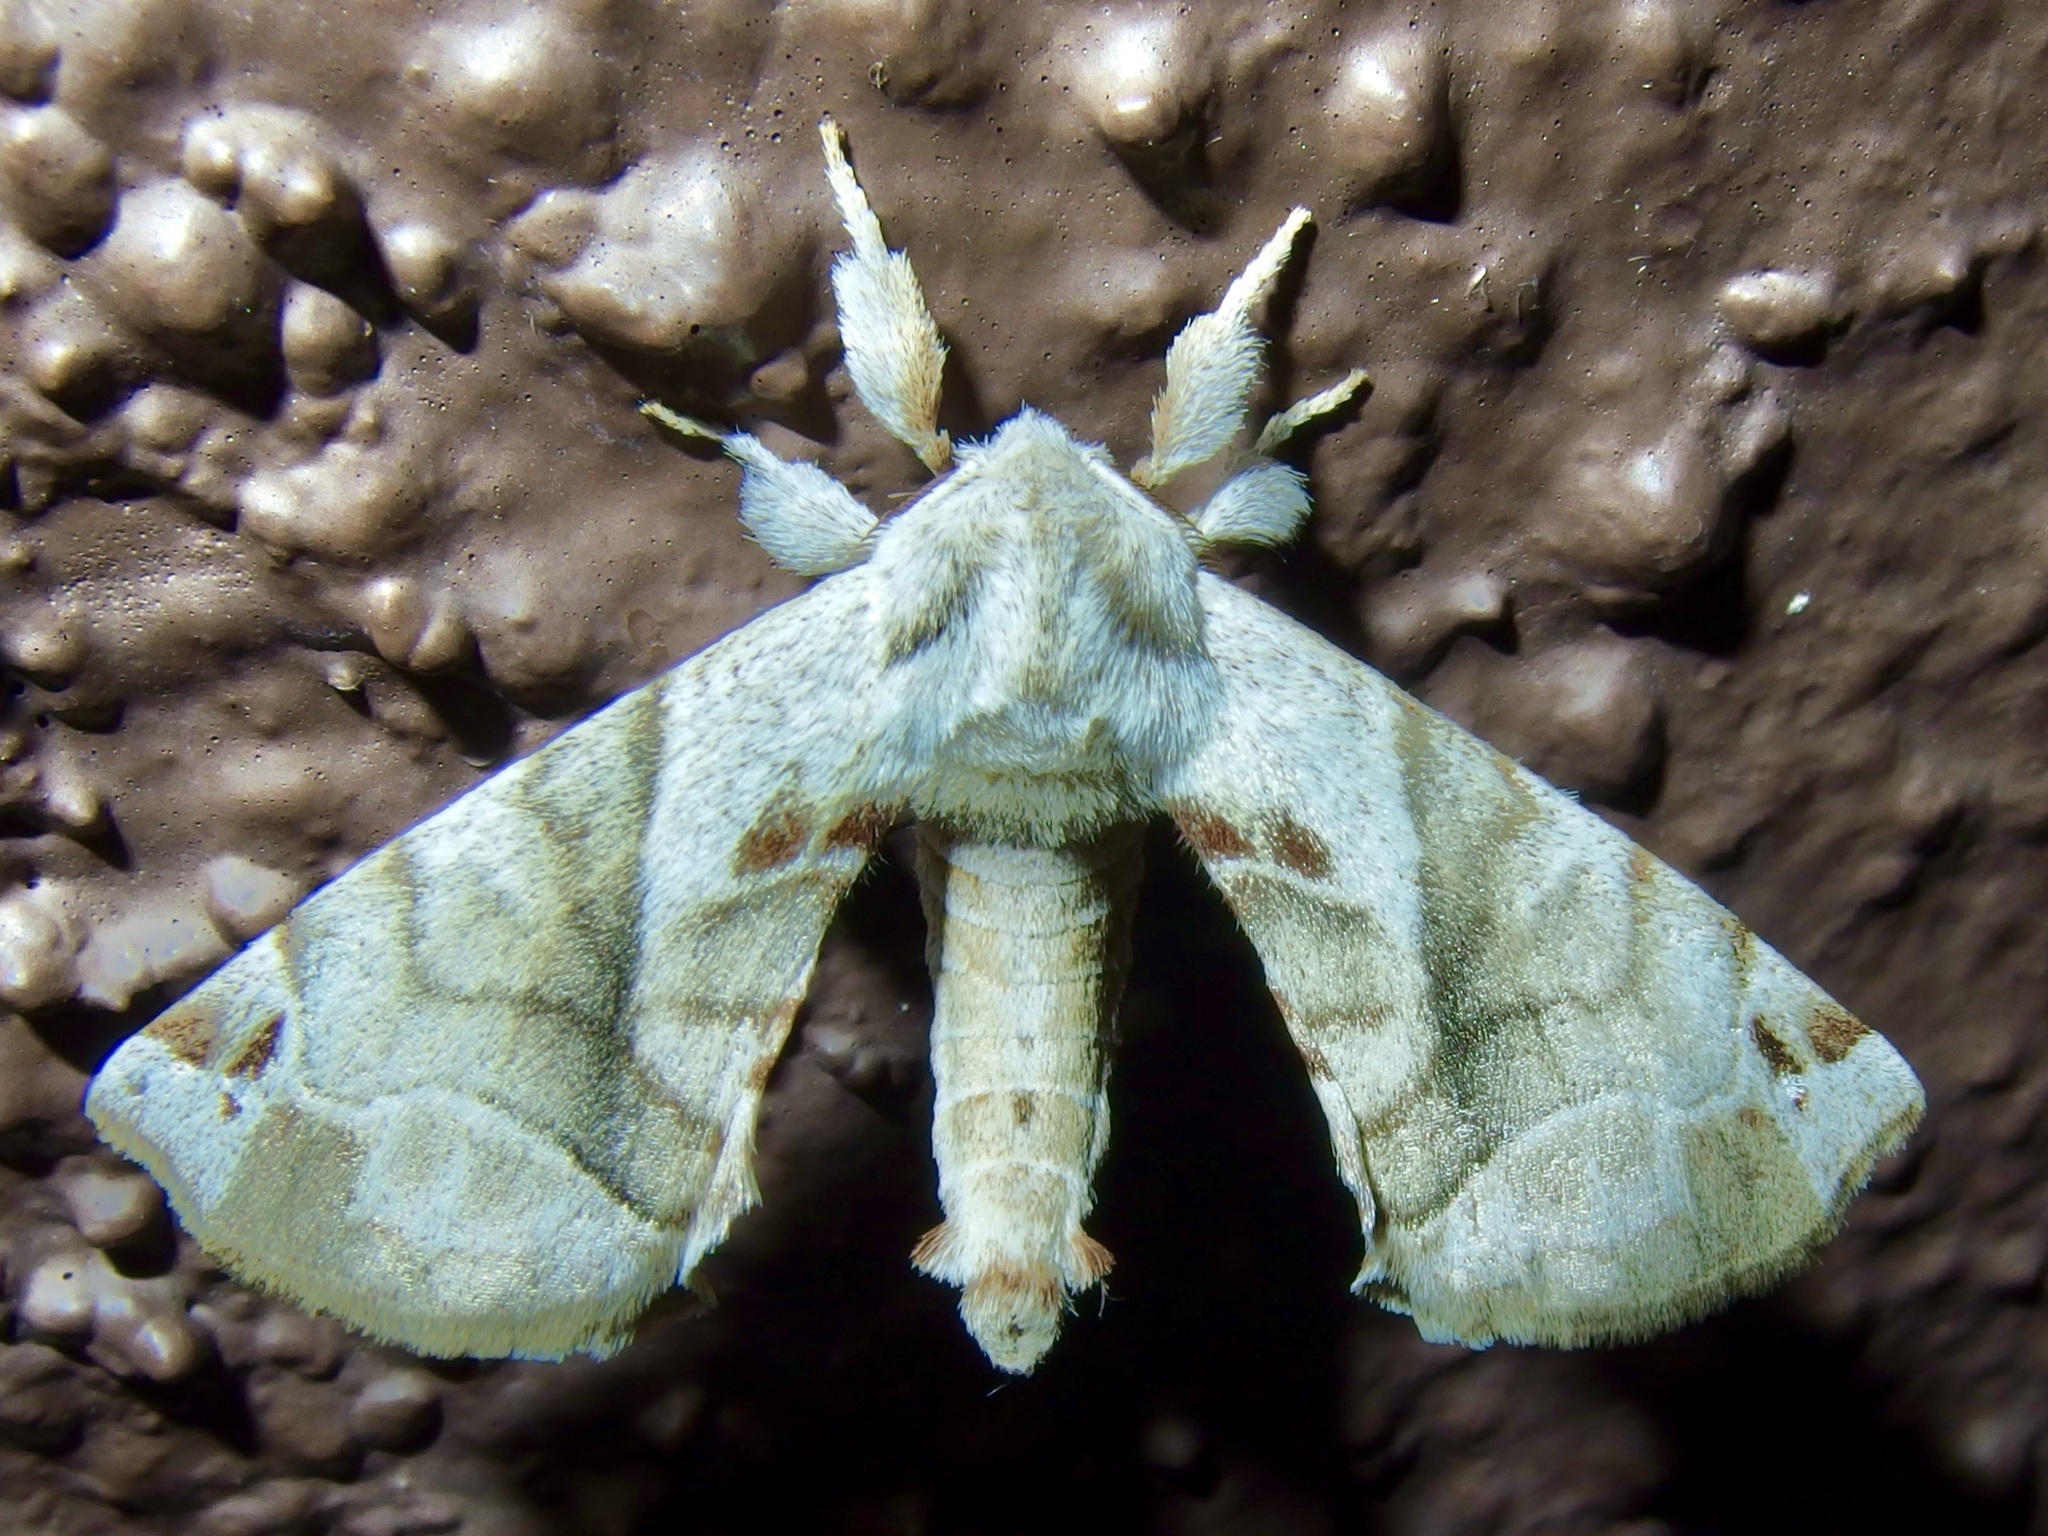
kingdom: Animalia
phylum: Arthropoda
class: Insecta
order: Lepidoptera
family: Apatelodidae
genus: Hygrochroa
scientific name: Hygrochroa Apatelodes pudefacta
